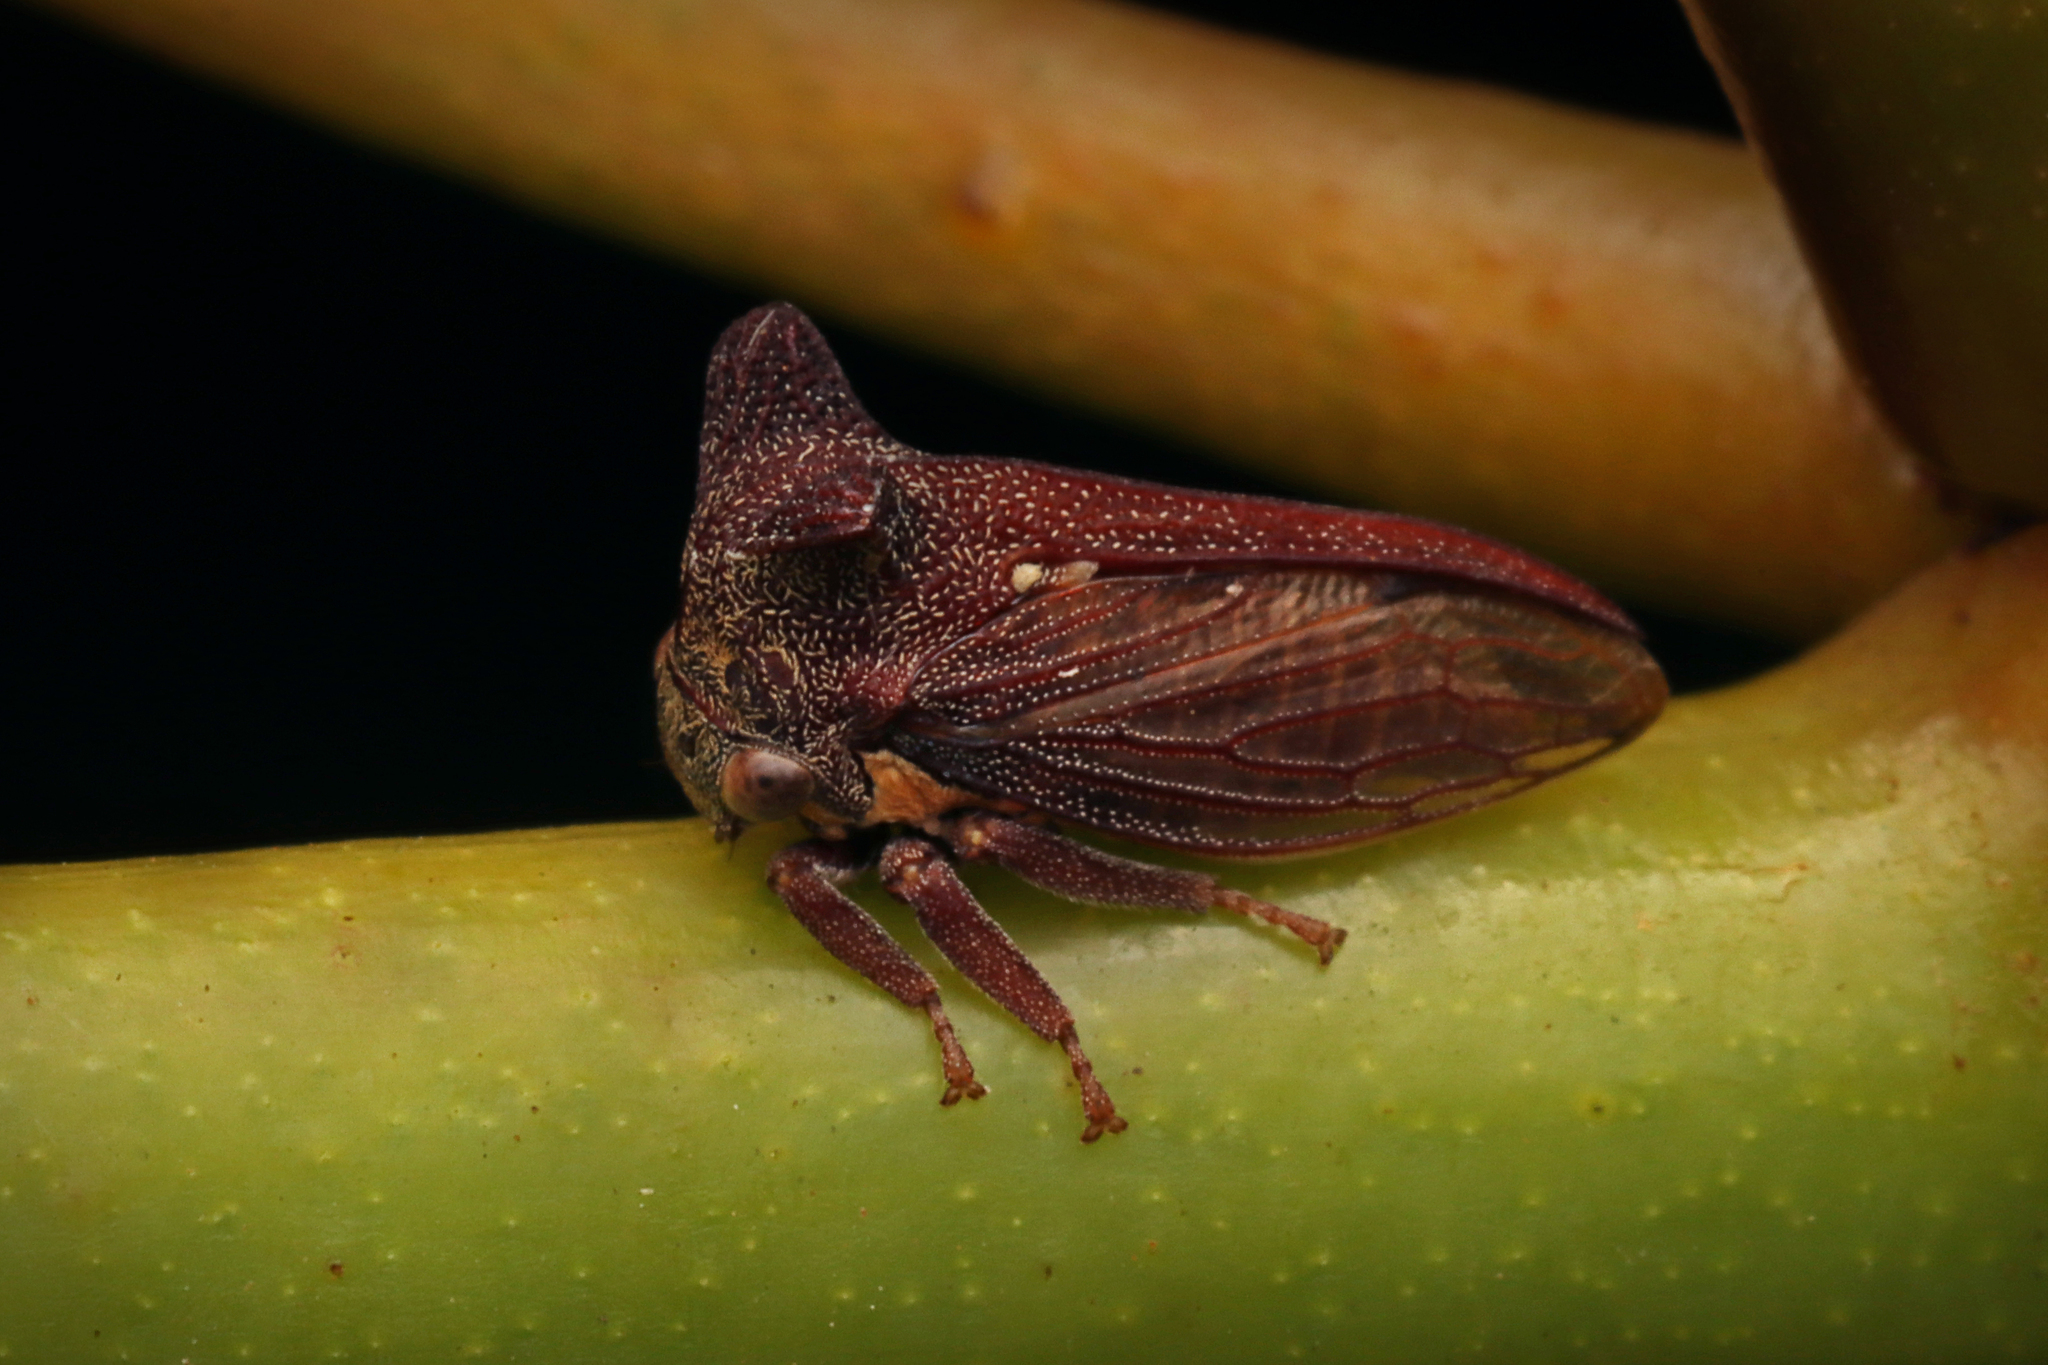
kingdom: Animalia
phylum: Arthropoda
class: Insecta
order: Hemiptera
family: Membracidae
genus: Ceraon
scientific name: Ceraon tasmaniae
